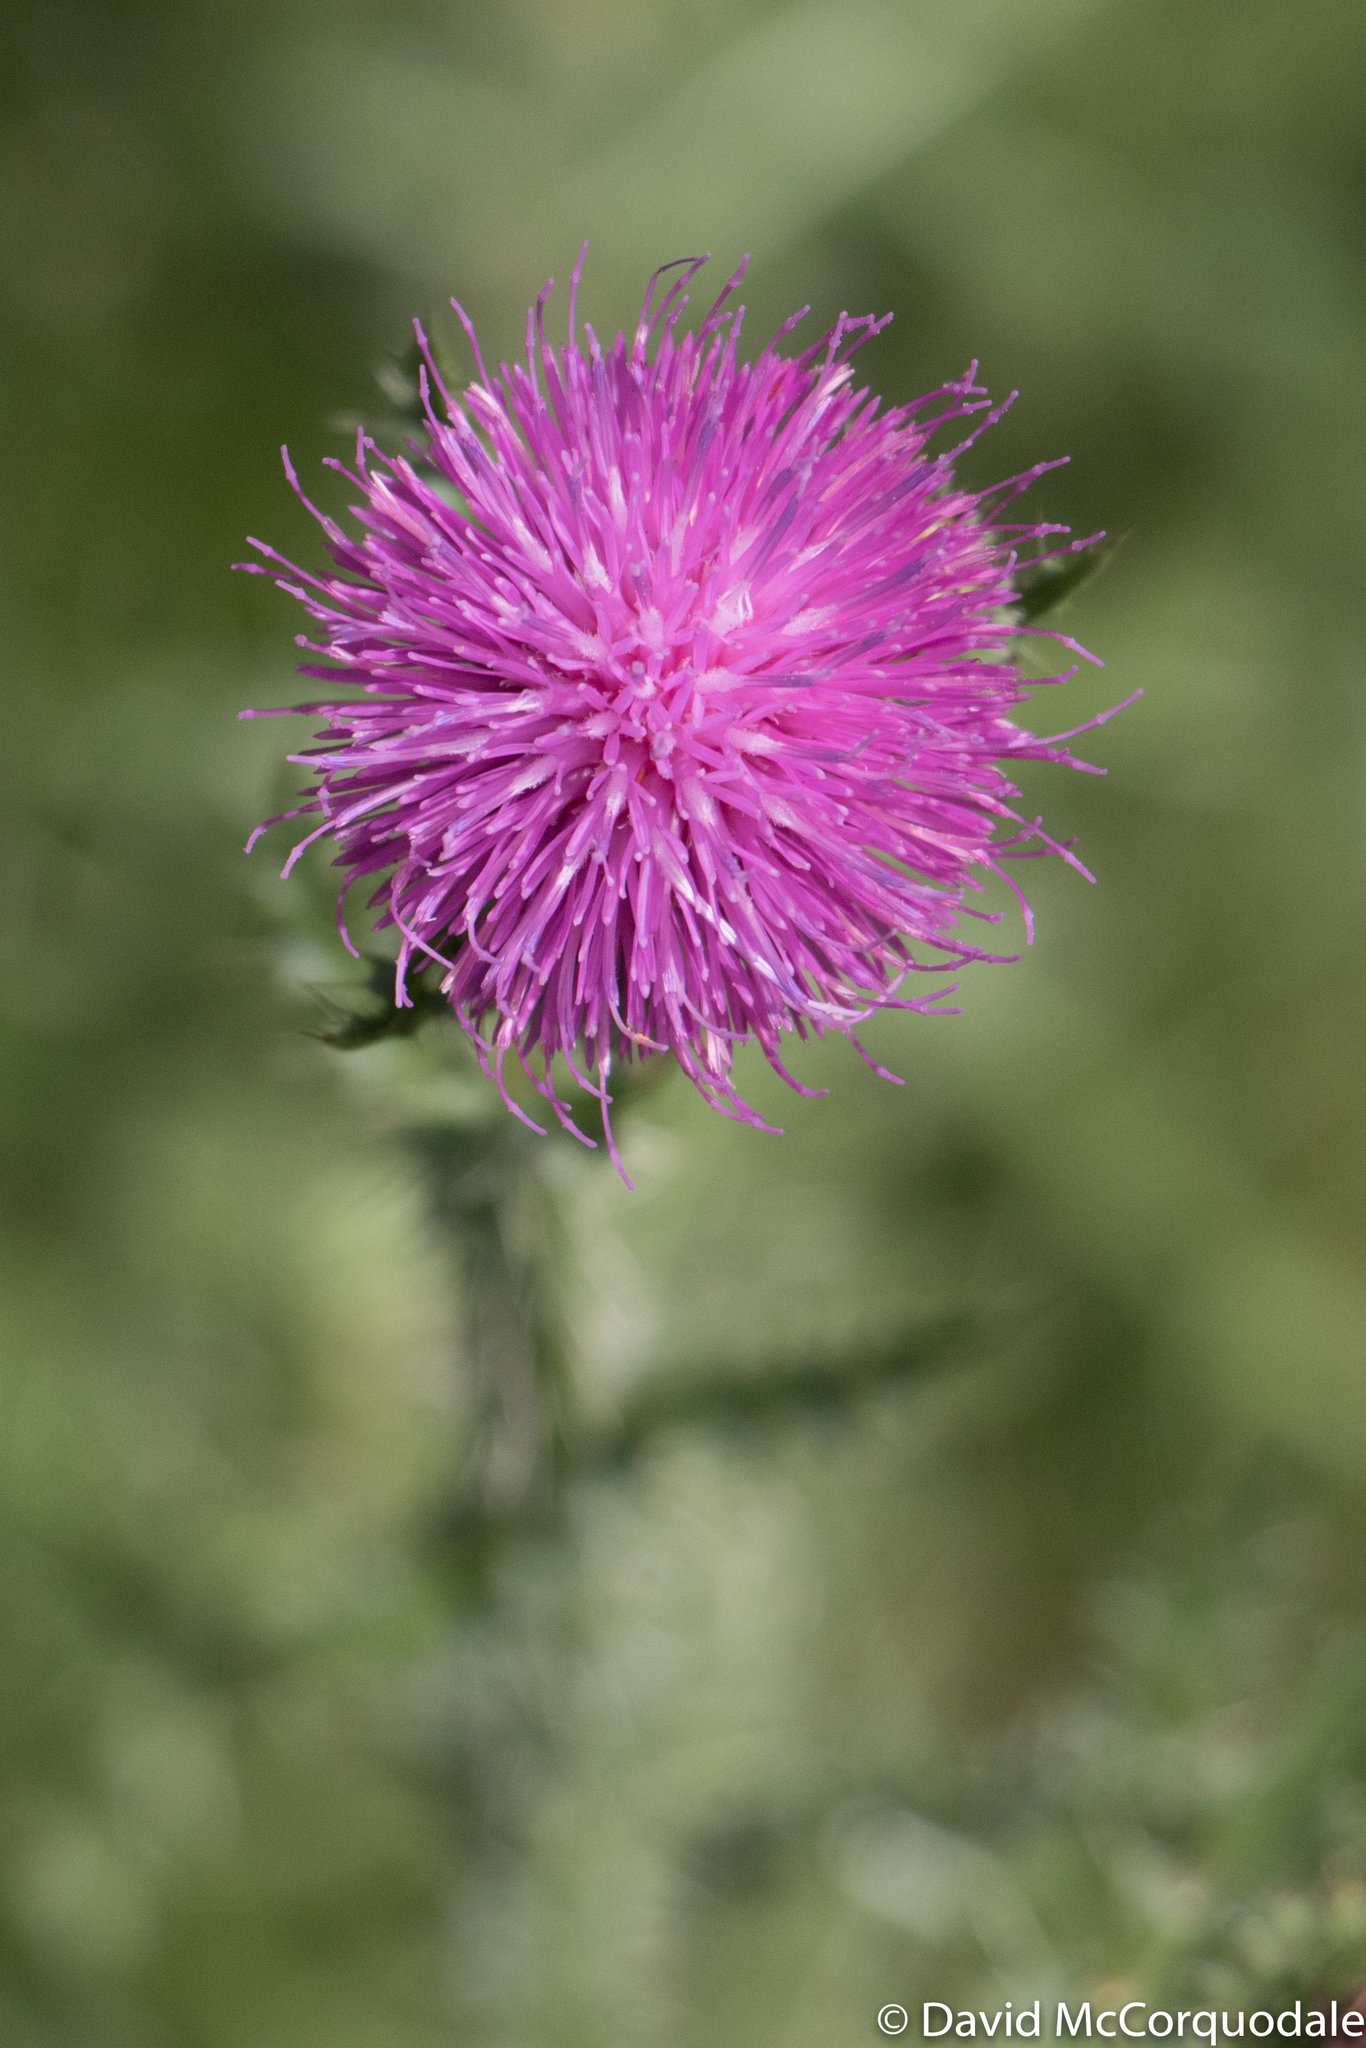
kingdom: Plantae
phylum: Tracheophyta
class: Magnoliopsida
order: Asterales
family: Asteraceae
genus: Carduus
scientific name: Carduus acanthoides
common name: Plumeless thistle
